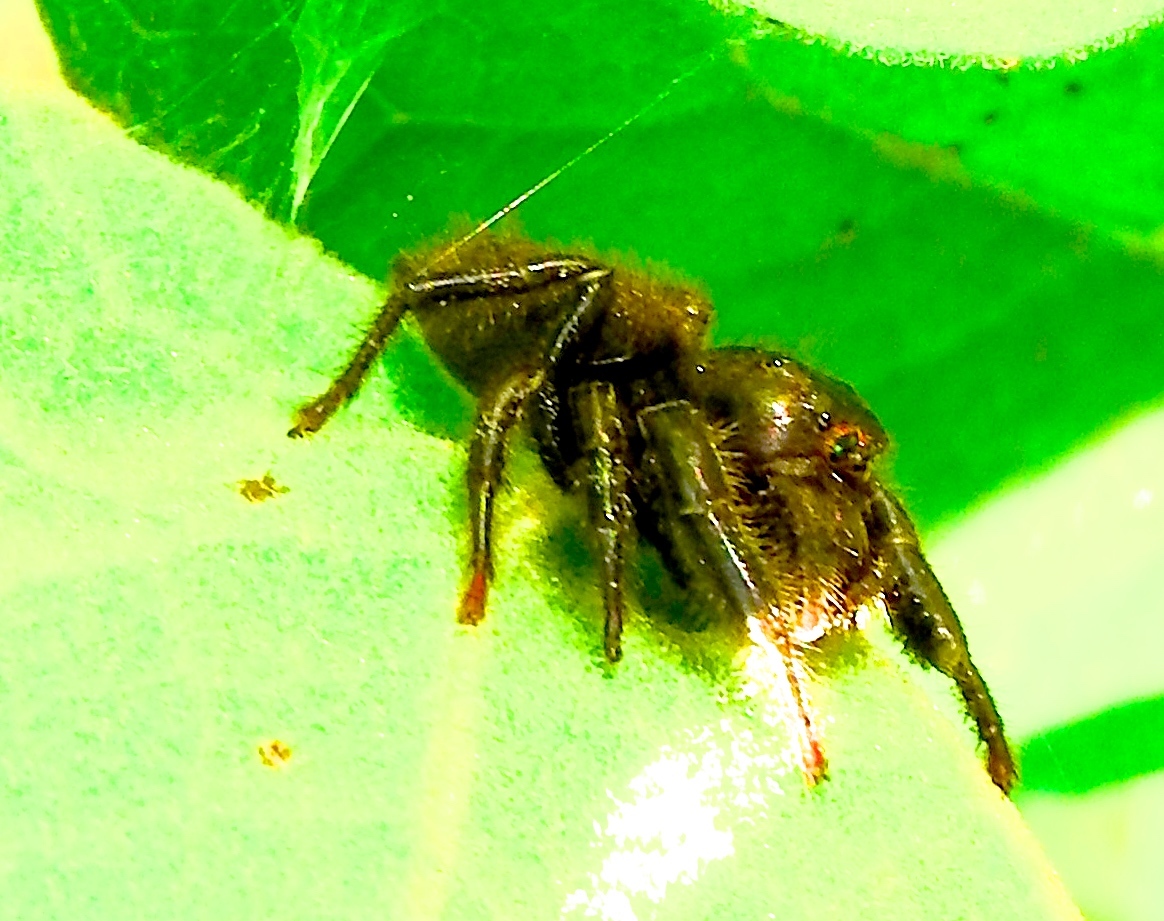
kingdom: Animalia
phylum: Arthropoda
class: Arachnida
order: Araneae
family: Salticidae
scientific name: Salticidae
